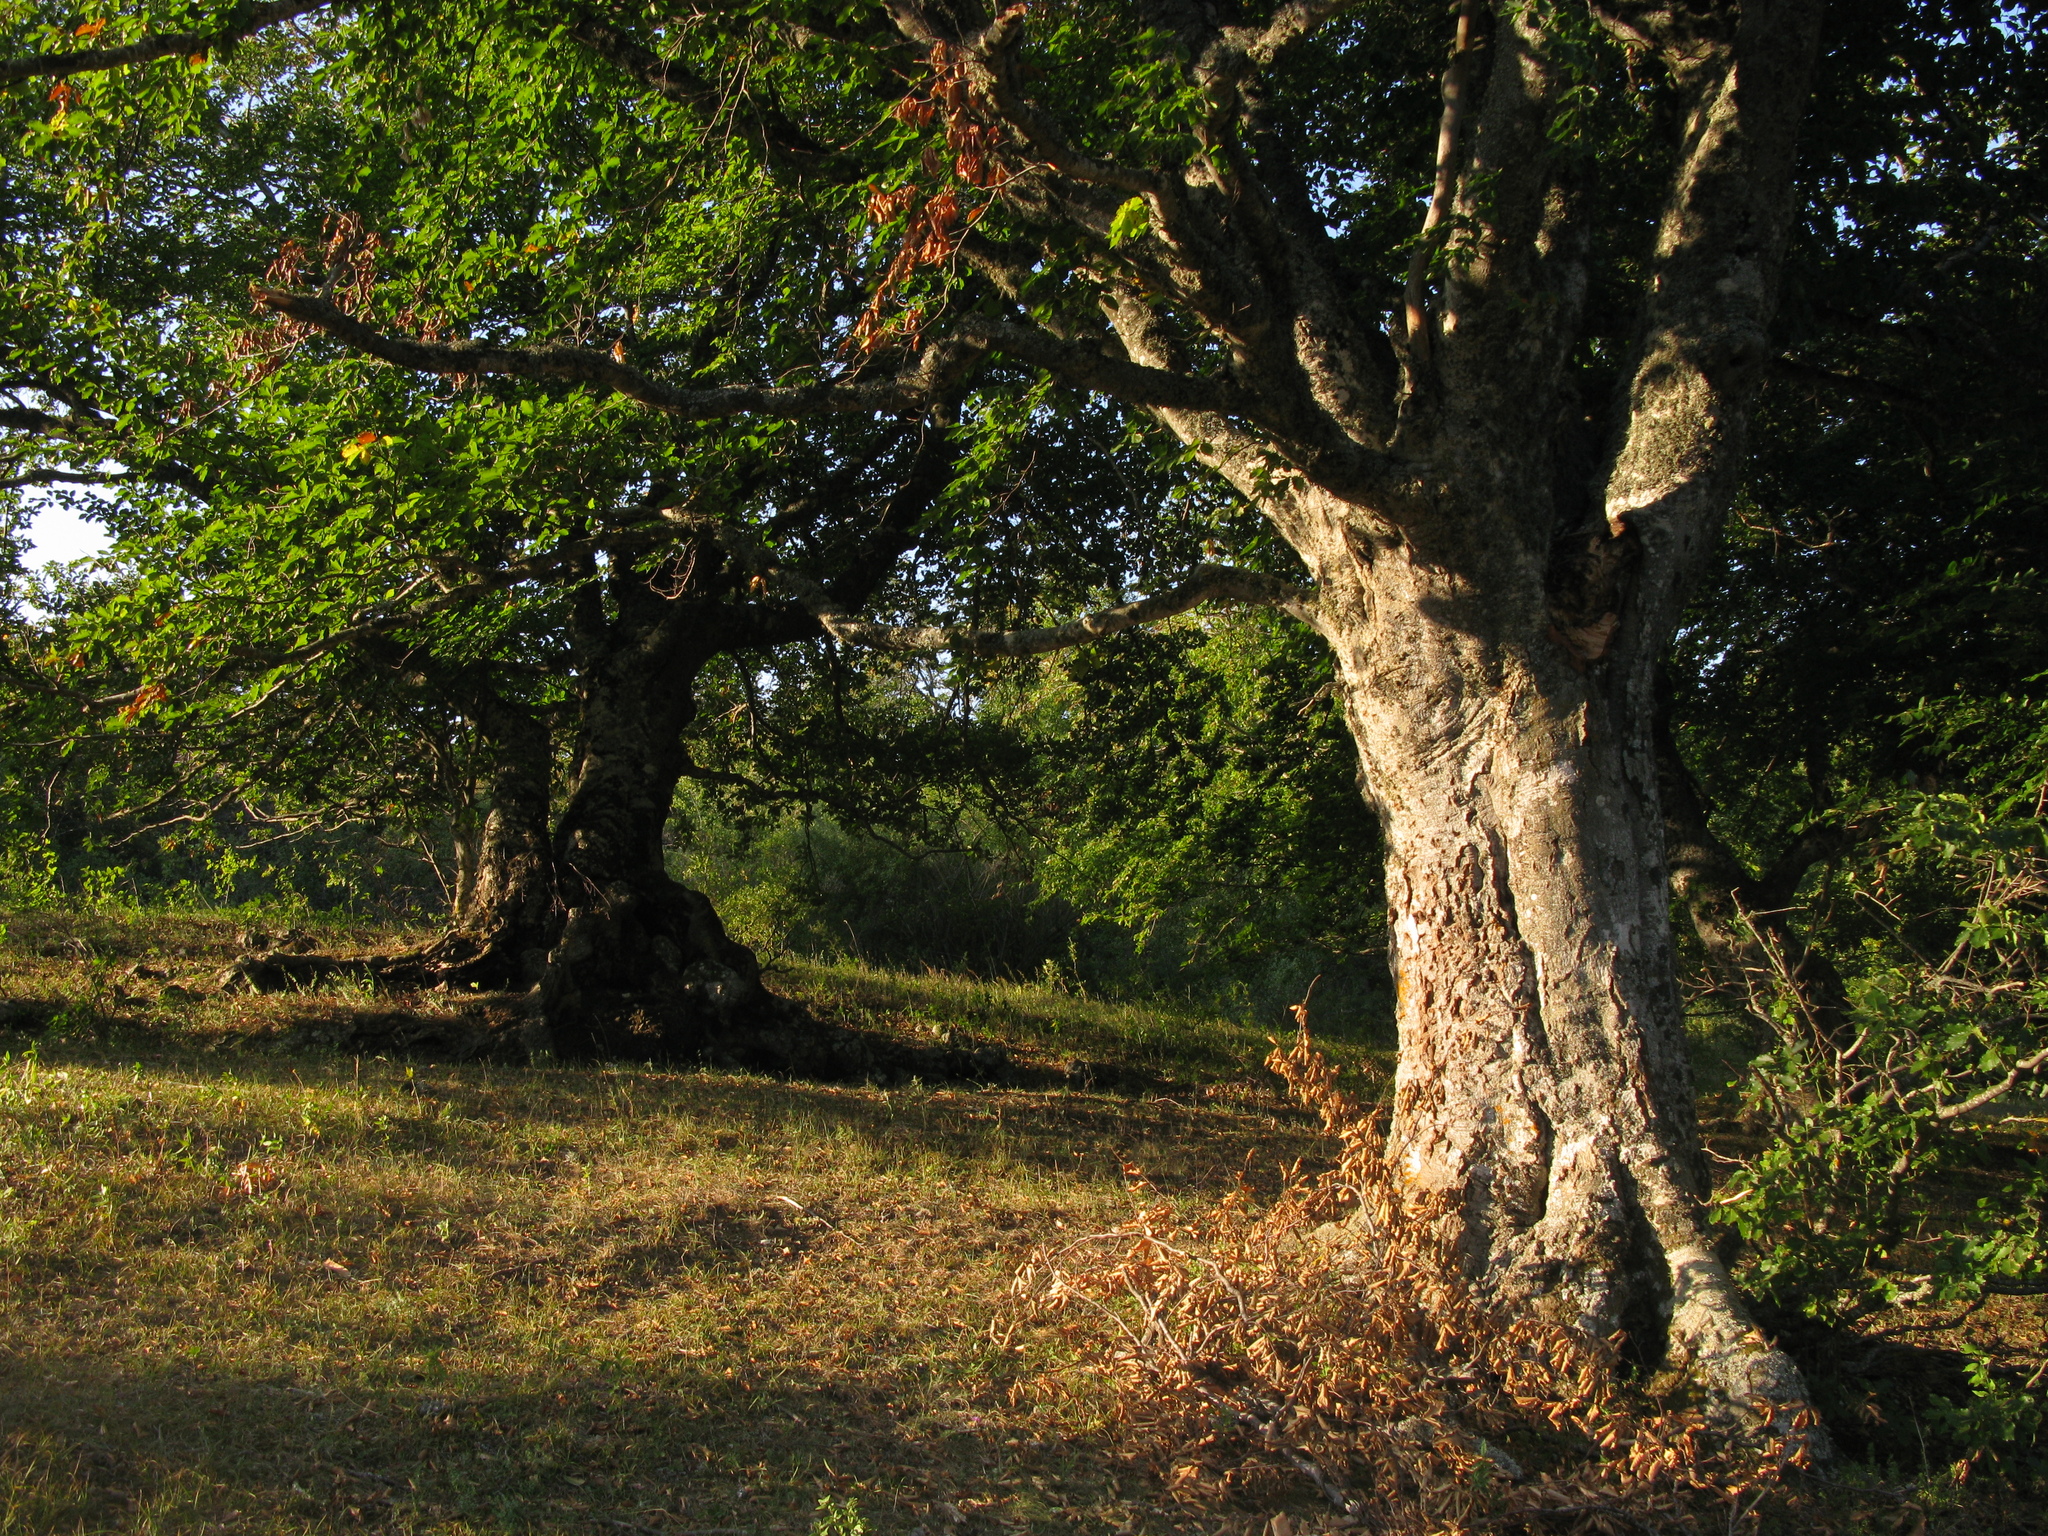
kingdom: Plantae
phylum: Tracheophyta
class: Magnoliopsida
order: Fagales
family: Fagaceae
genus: Fagus
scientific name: Fagus taurica
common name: Crimean beech
